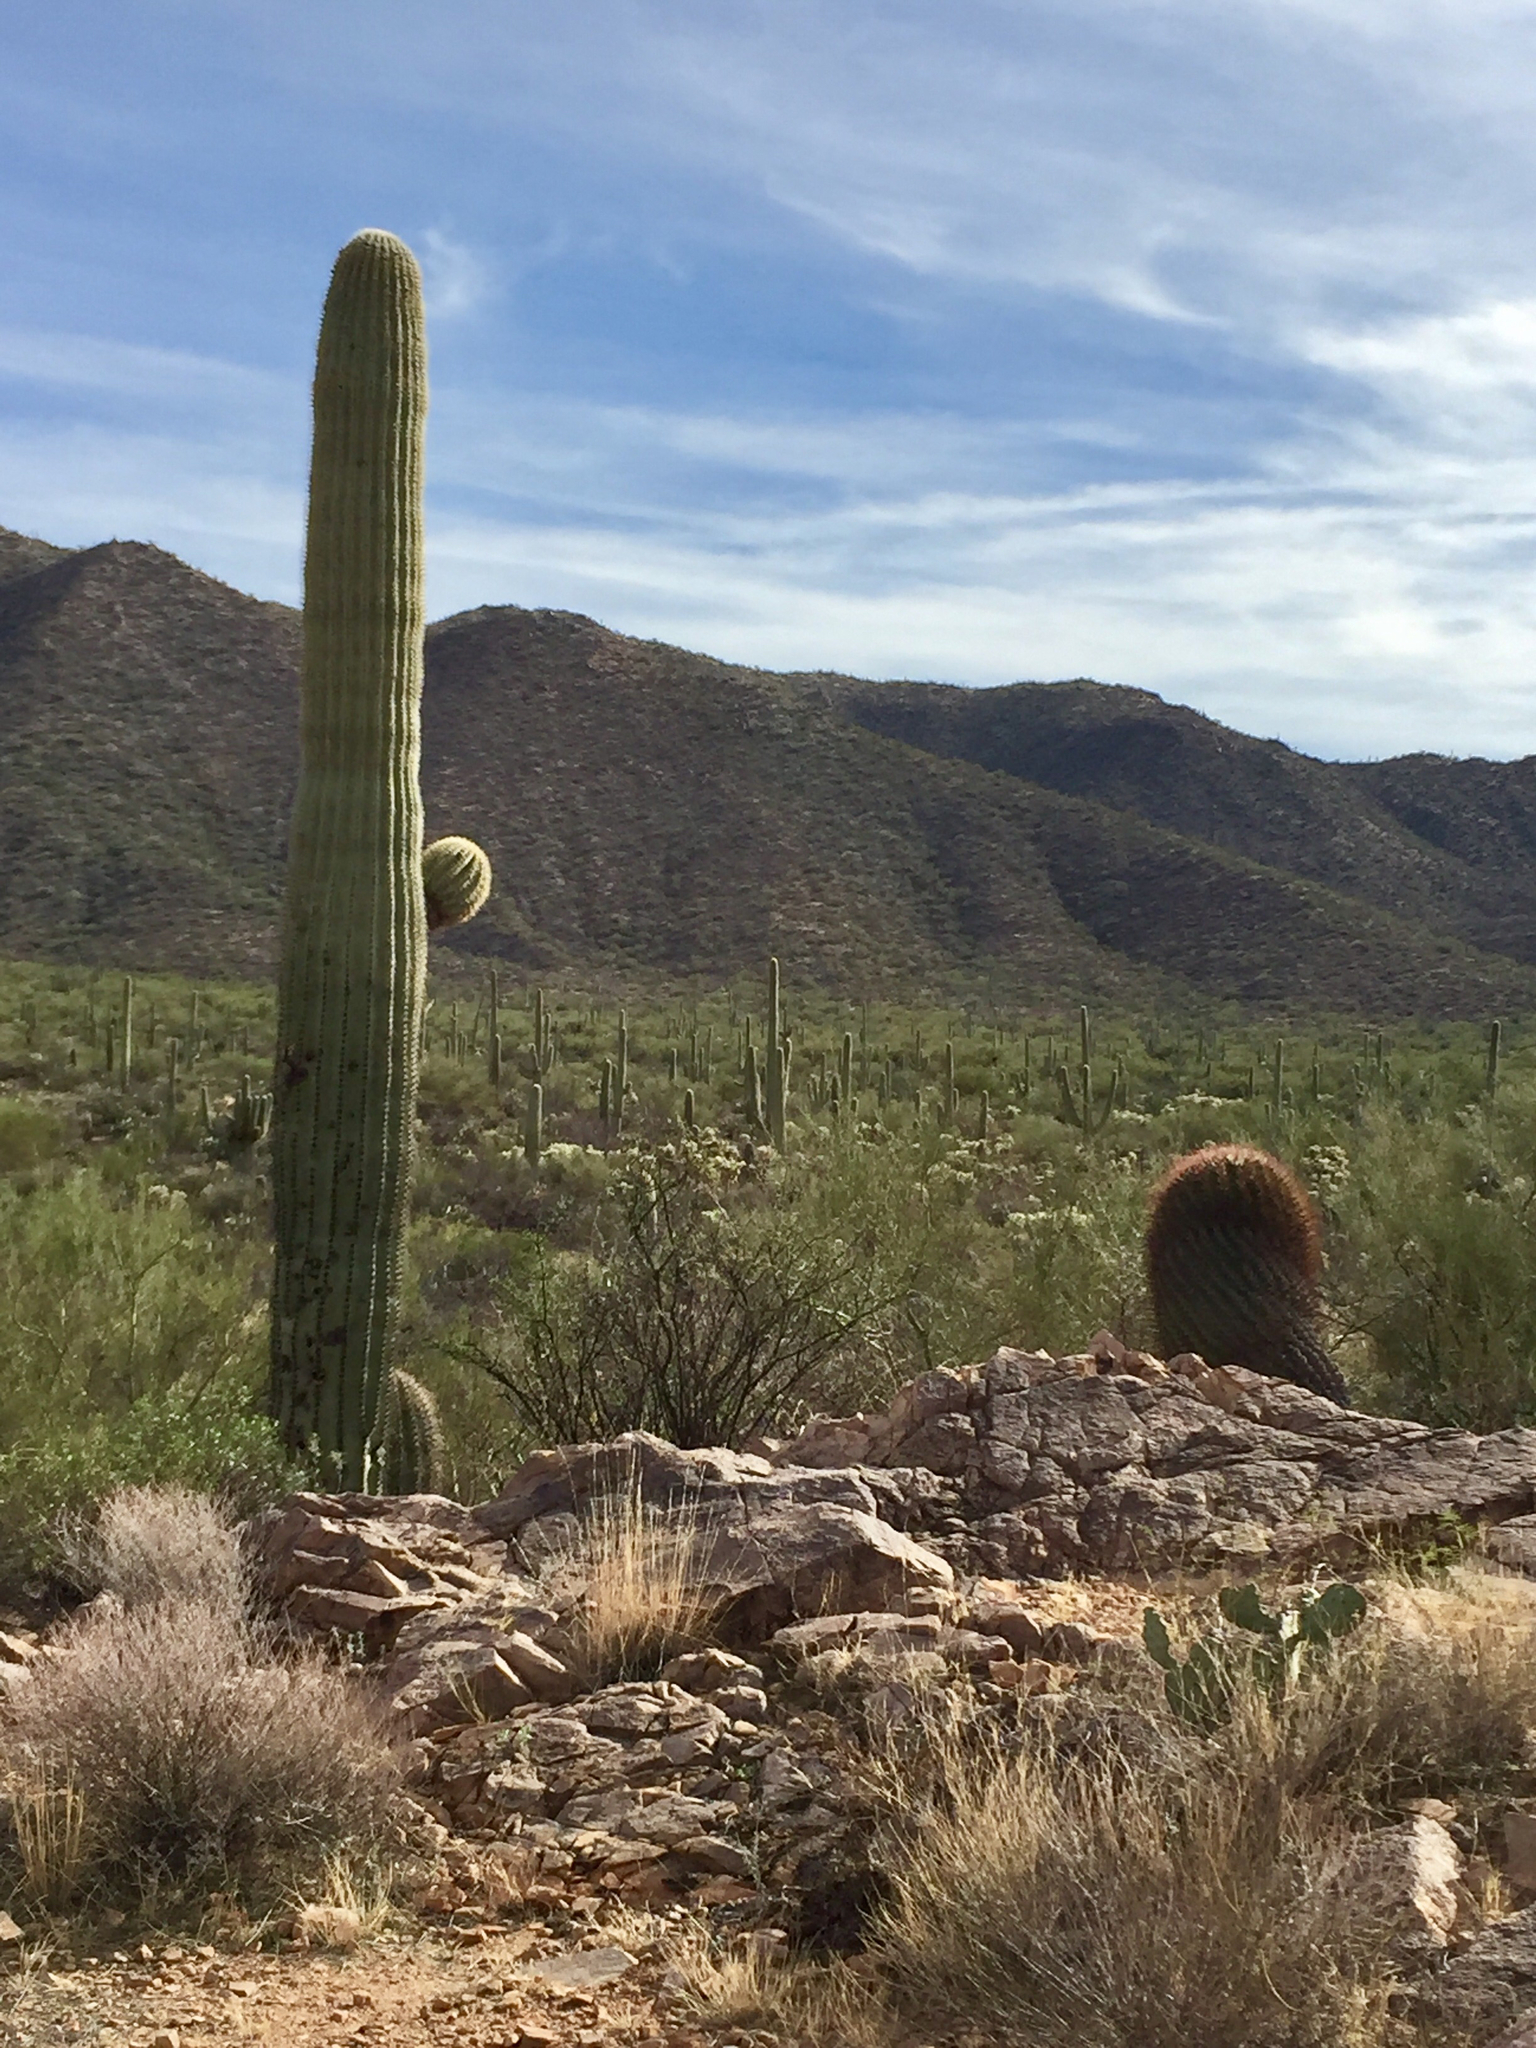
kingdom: Plantae
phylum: Tracheophyta
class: Magnoliopsida
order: Caryophyllales
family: Cactaceae
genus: Carnegiea
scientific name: Carnegiea gigantea
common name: Saguaro
